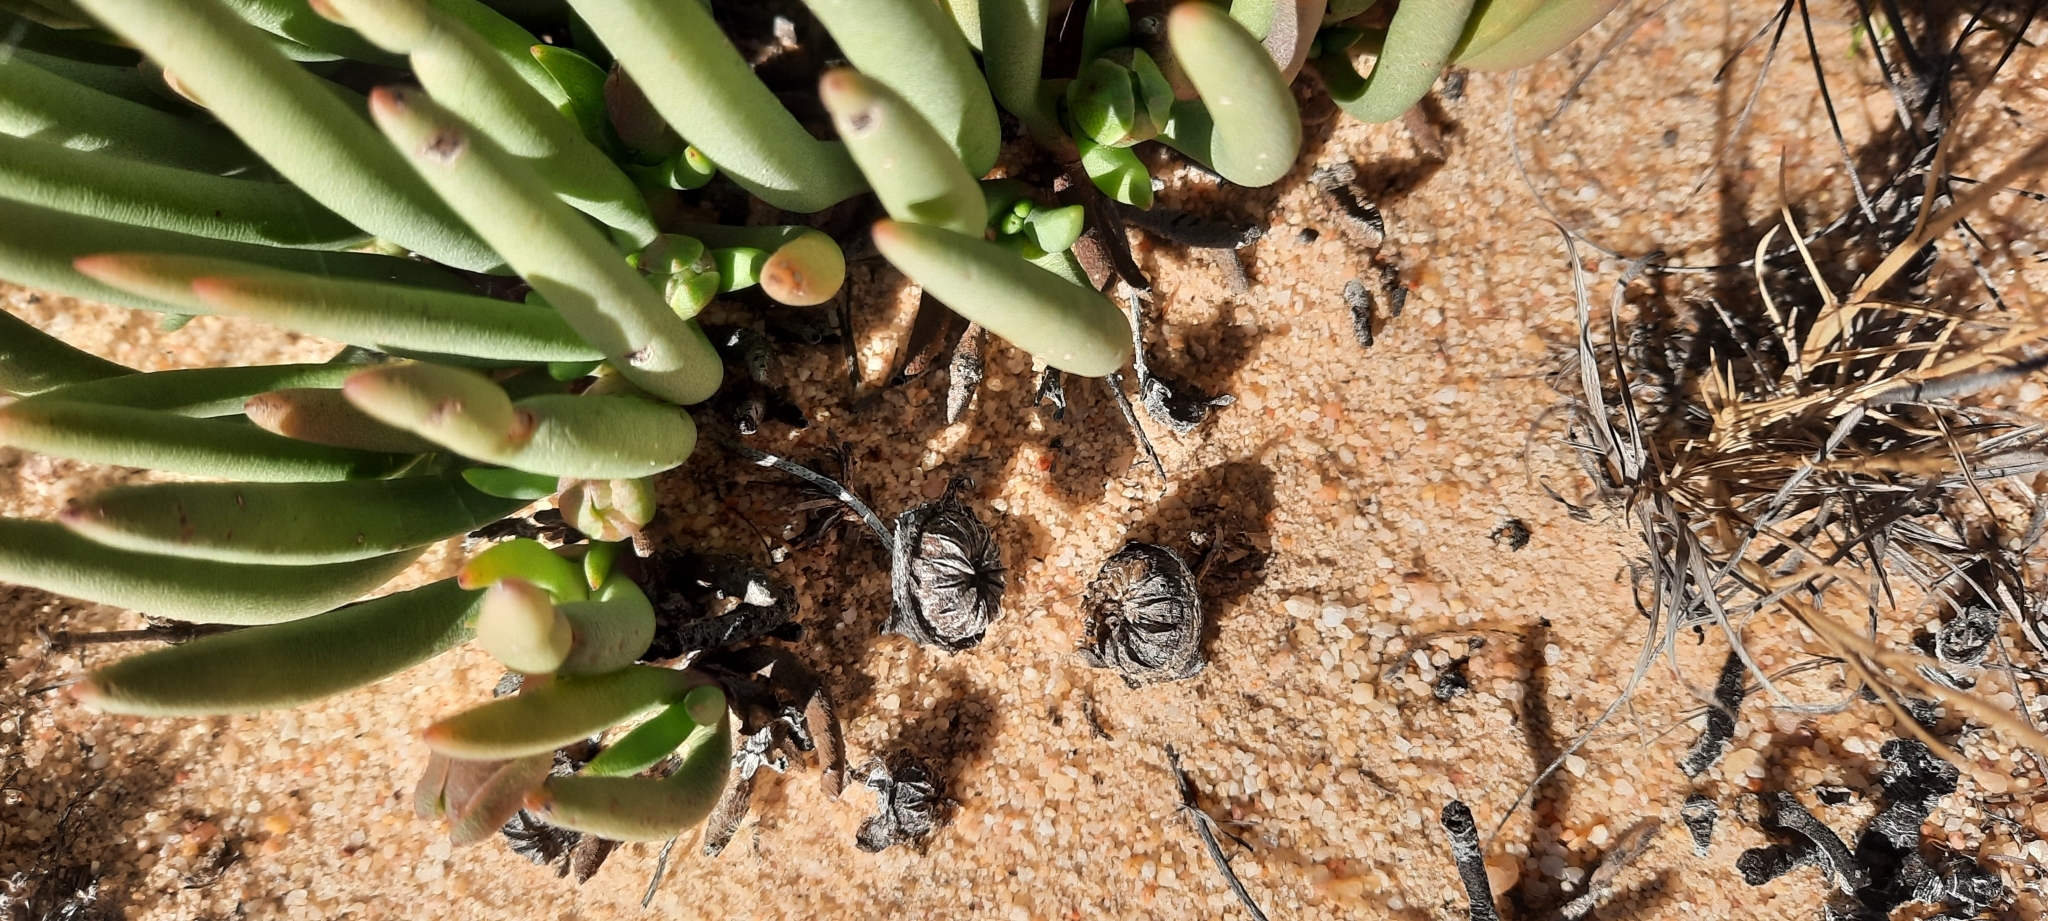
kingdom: Plantae
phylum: Tracheophyta
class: Magnoliopsida
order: Caryophyllales
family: Aizoaceae
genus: Cephalophyllum
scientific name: Cephalophyllum loreum
